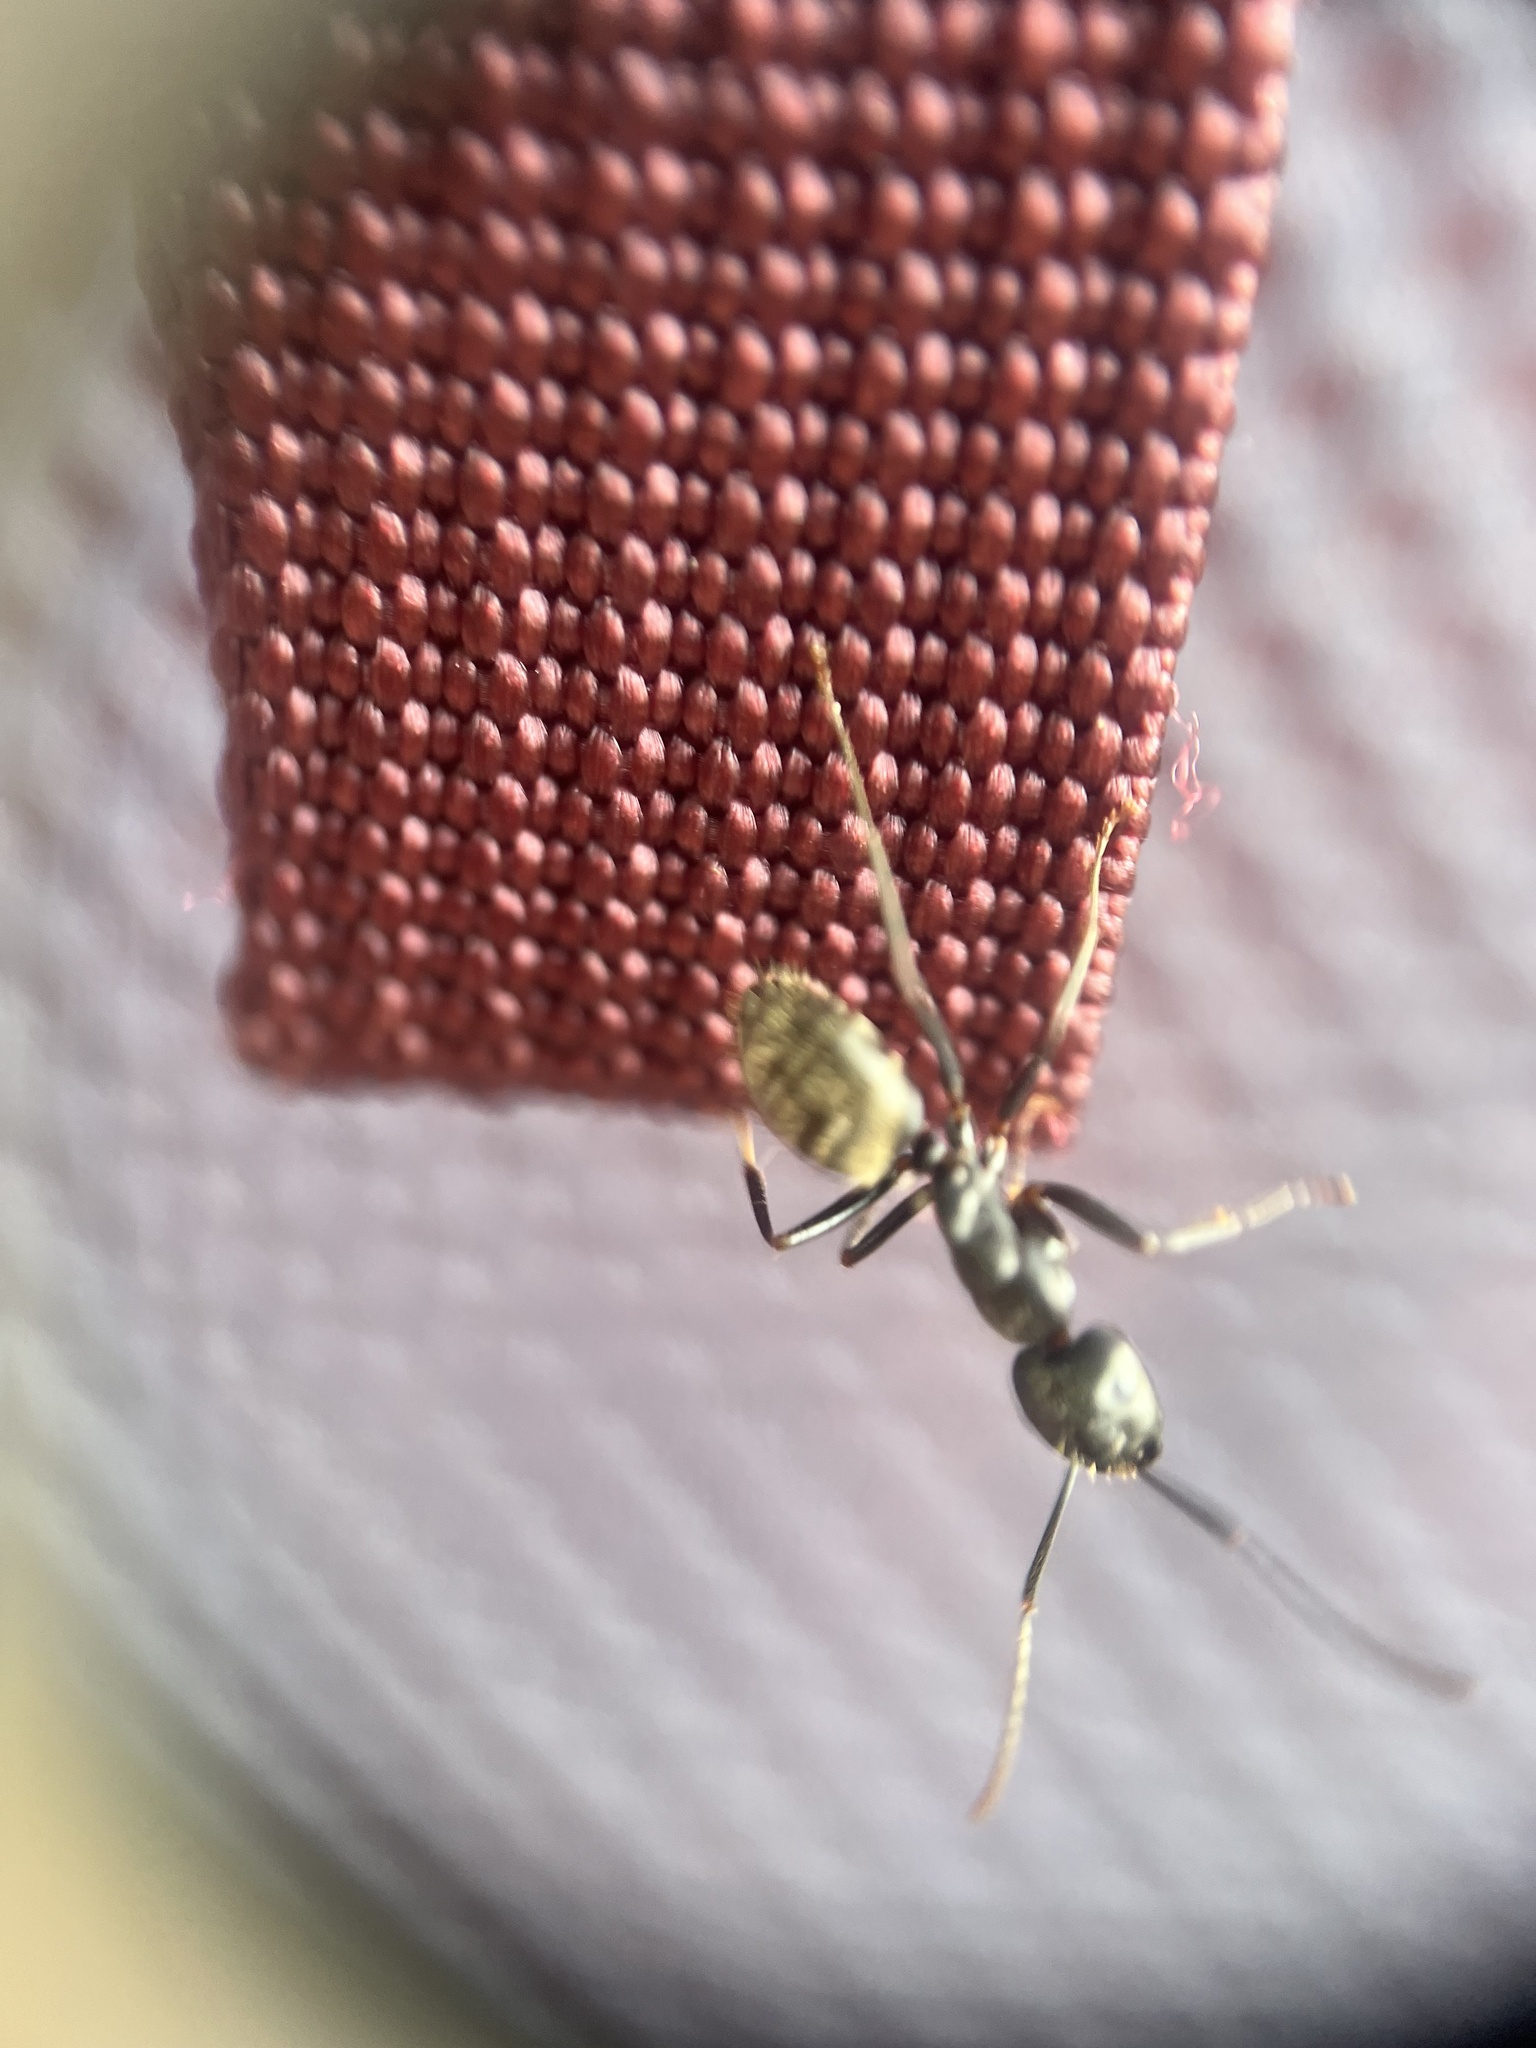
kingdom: Animalia
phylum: Arthropoda
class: Insecta
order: Hymenoptera
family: Formicidae
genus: Camponotus
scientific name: Camponotus pennsylvanicus
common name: Black carpenter ant
